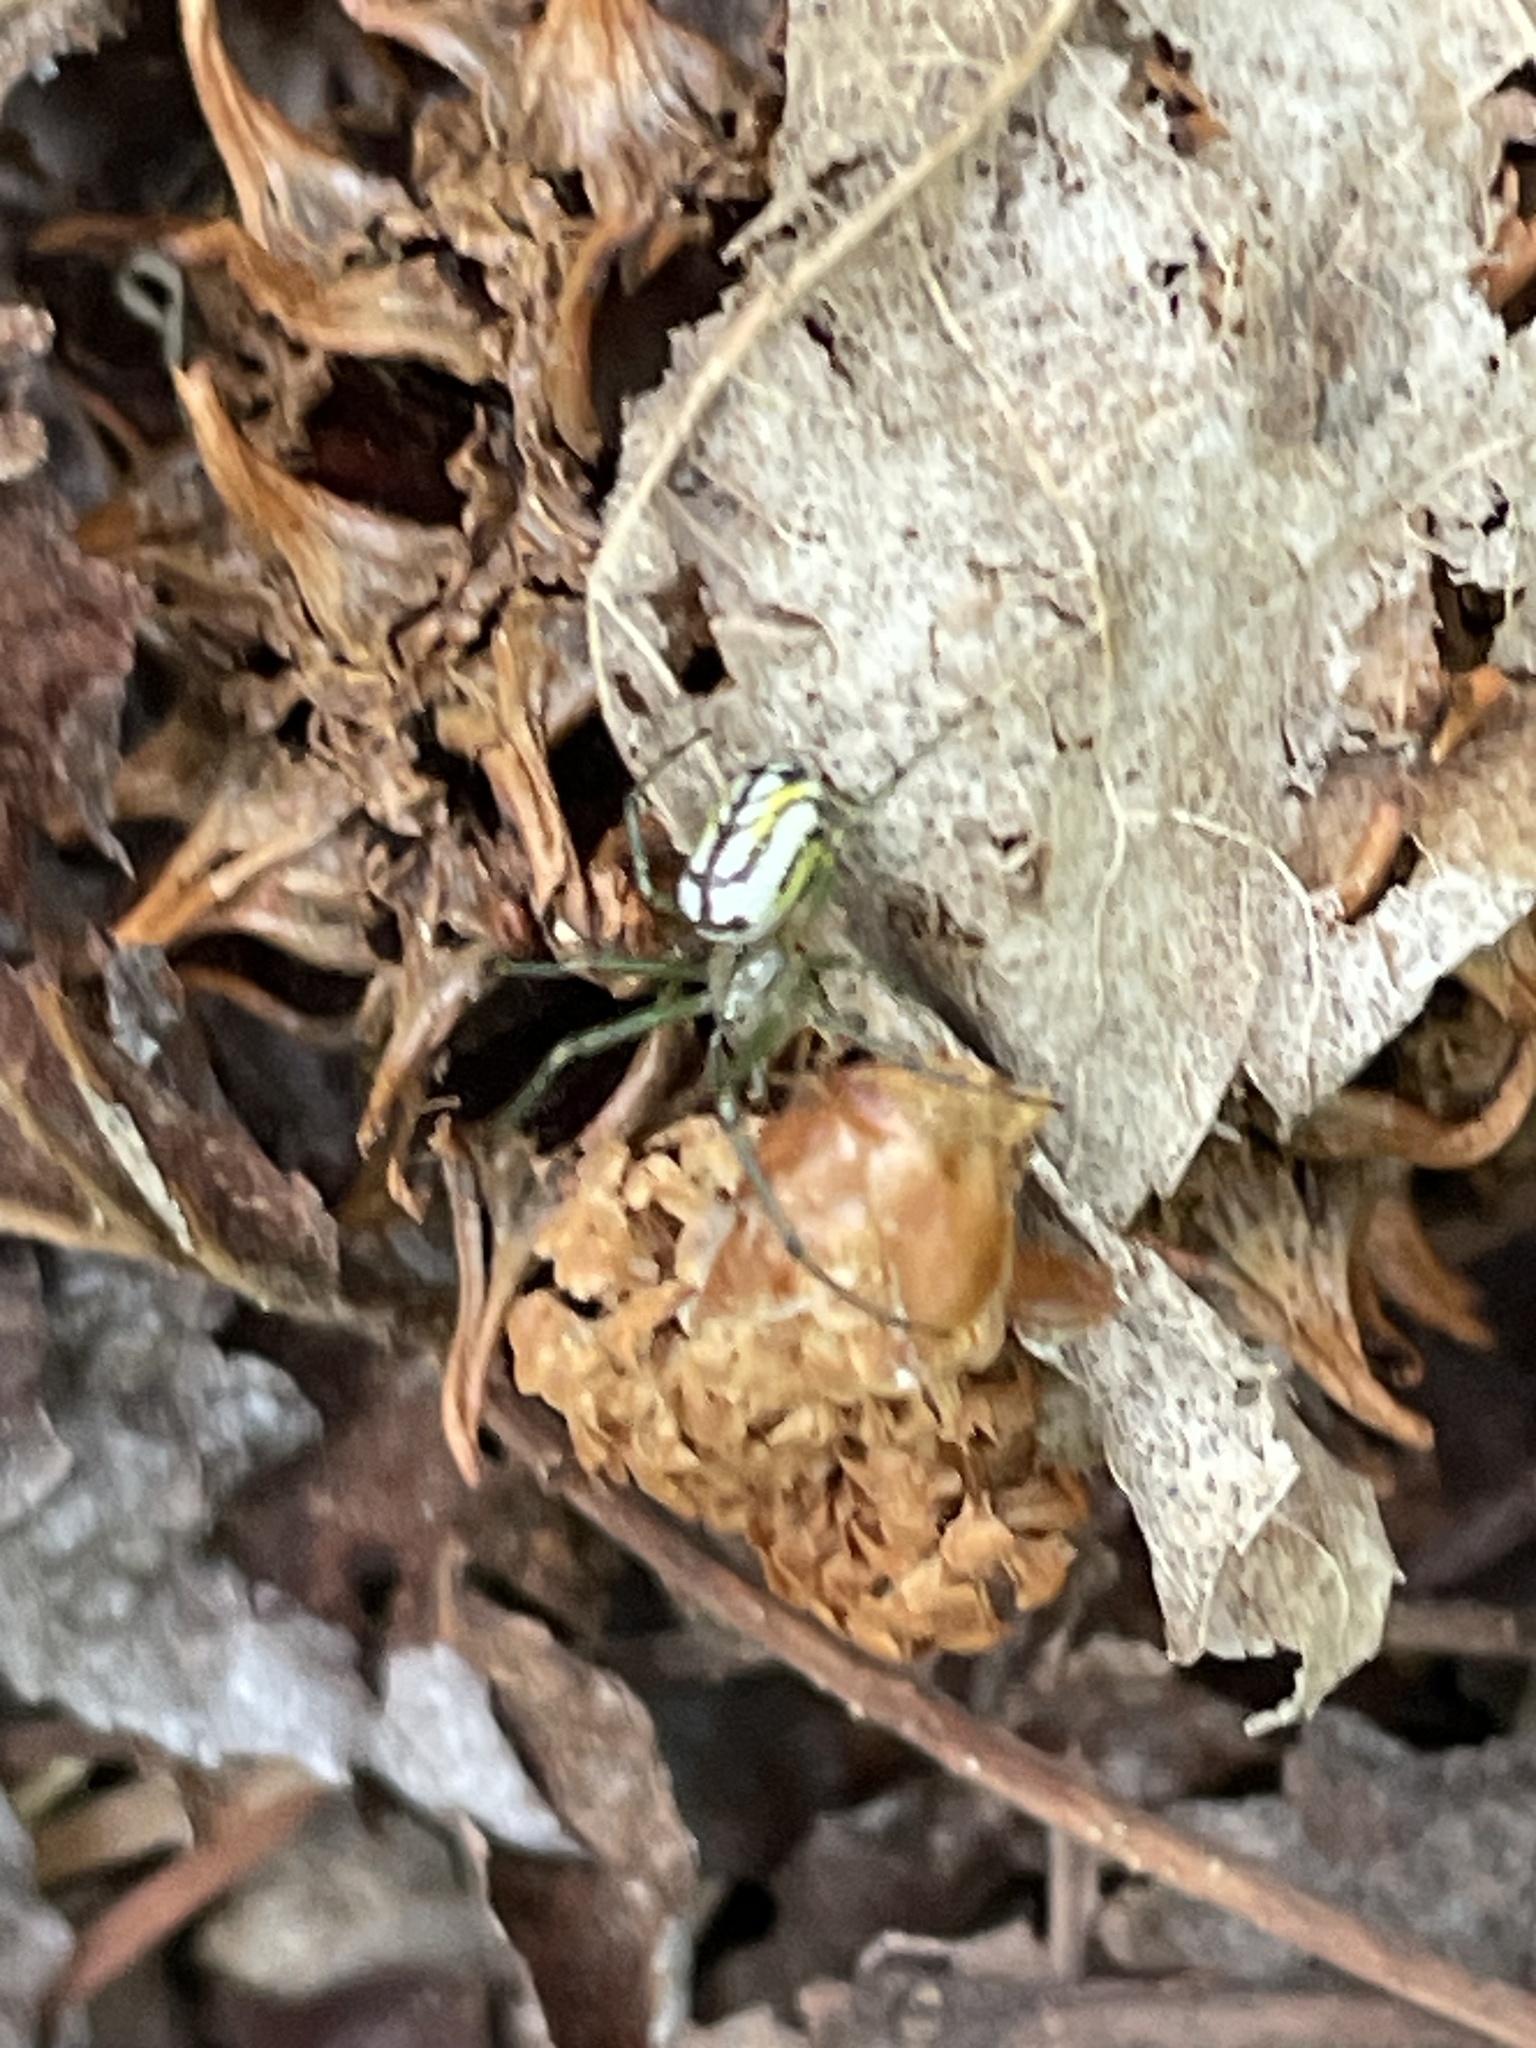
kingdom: Animalia
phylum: Arthropoda
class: Arachnida
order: Araneae
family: Tetragnathidae
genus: Leucauge
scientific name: Leucauge venusta
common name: Longjawed orb weavers
